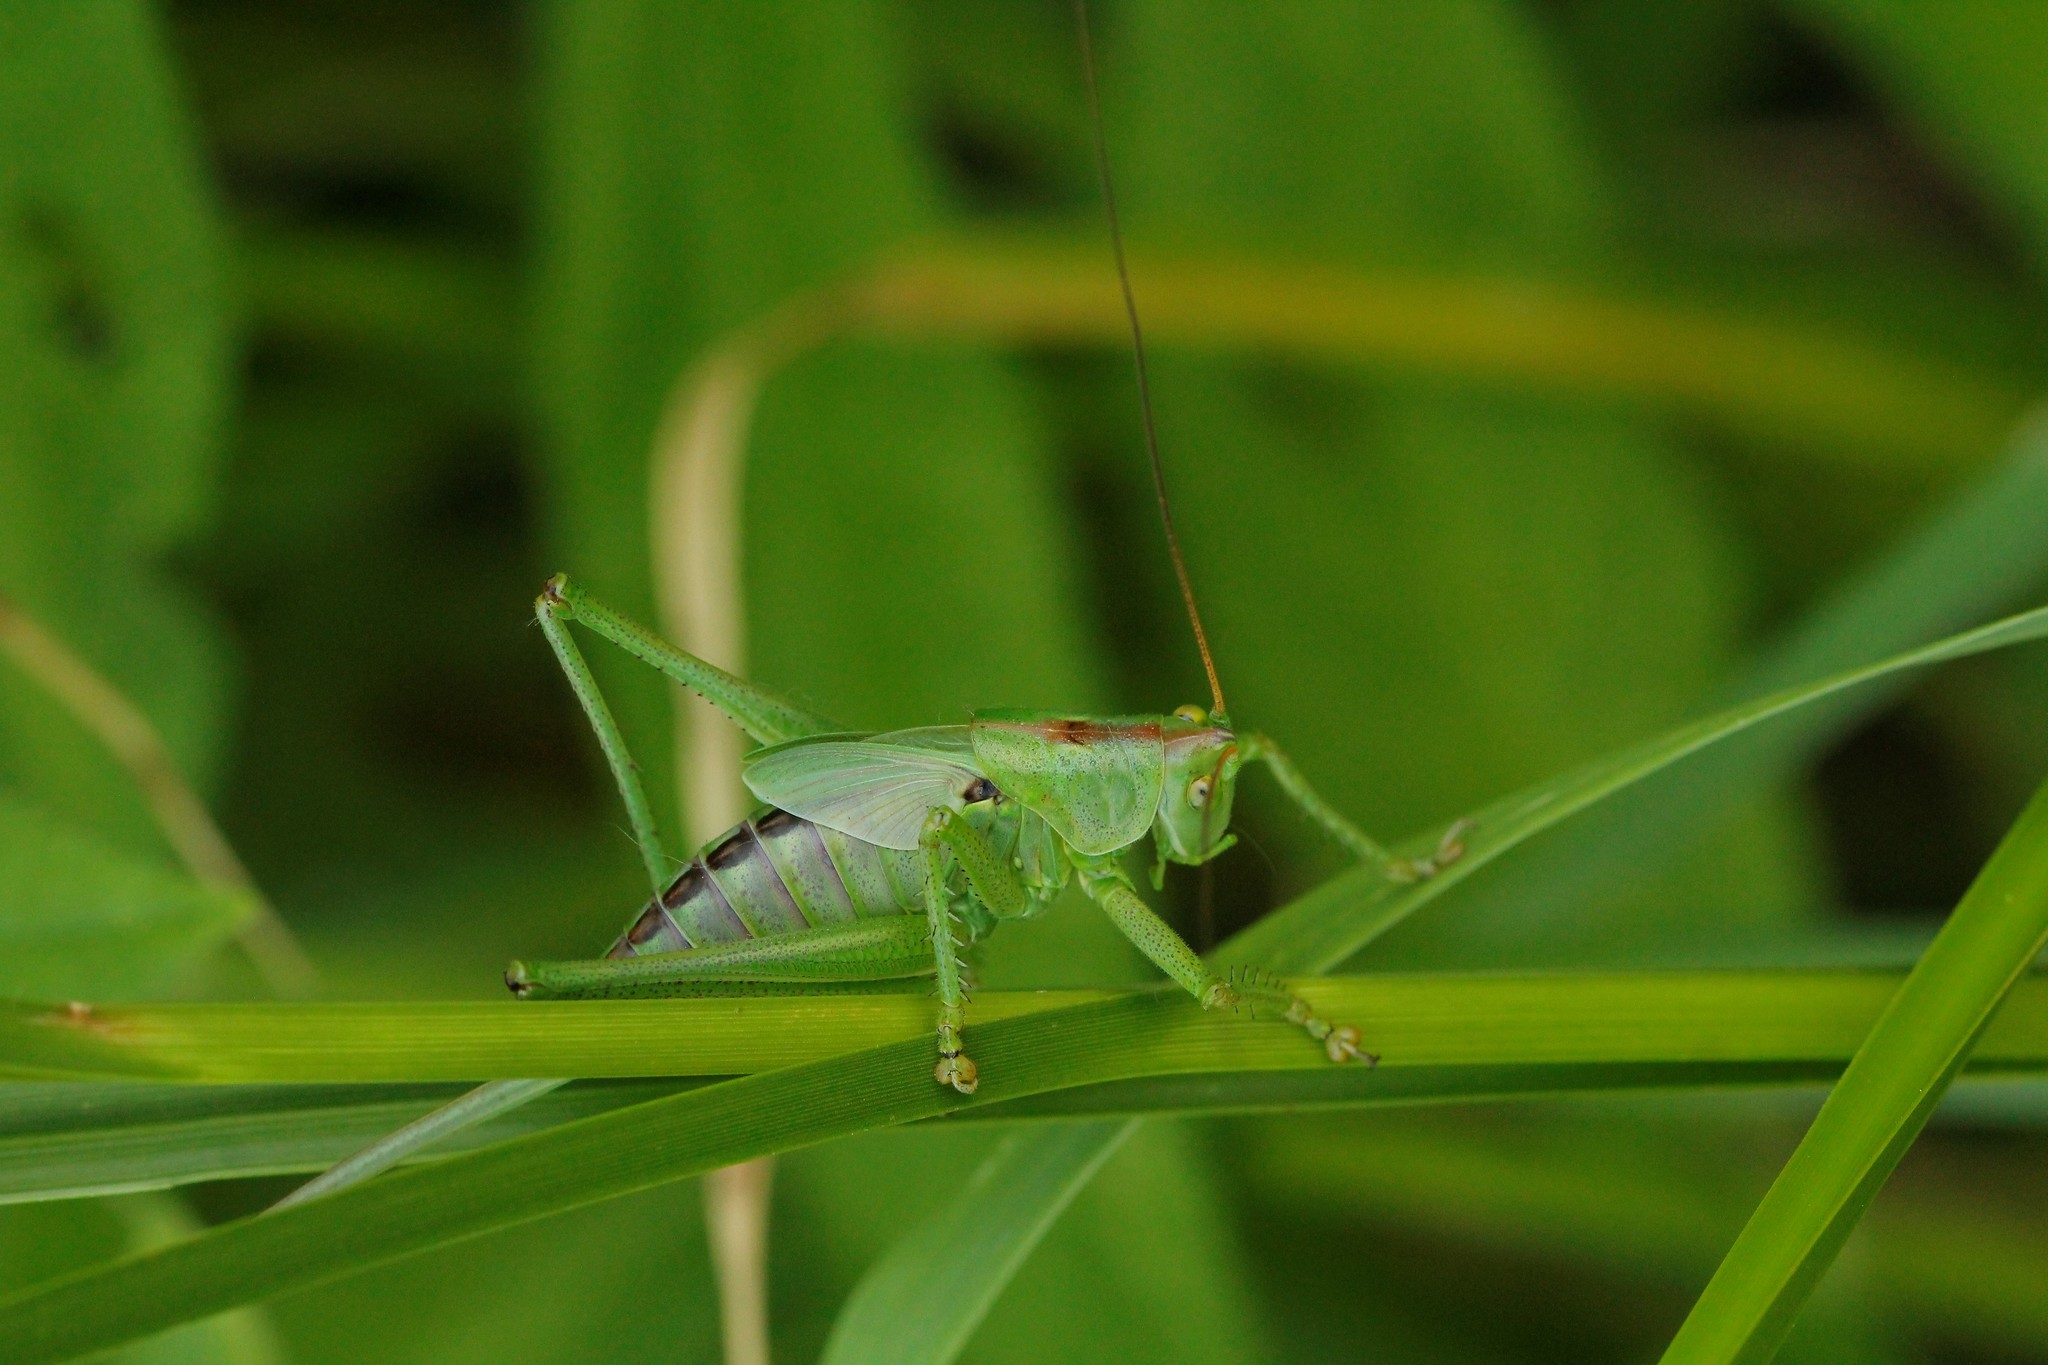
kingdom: Animalia
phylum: Arthropoda
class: Insecta
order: Orthoptera
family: Tettigoniidae
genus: Tettigonia
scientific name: Tettigonia viridissima
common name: Great green bush-cricket
